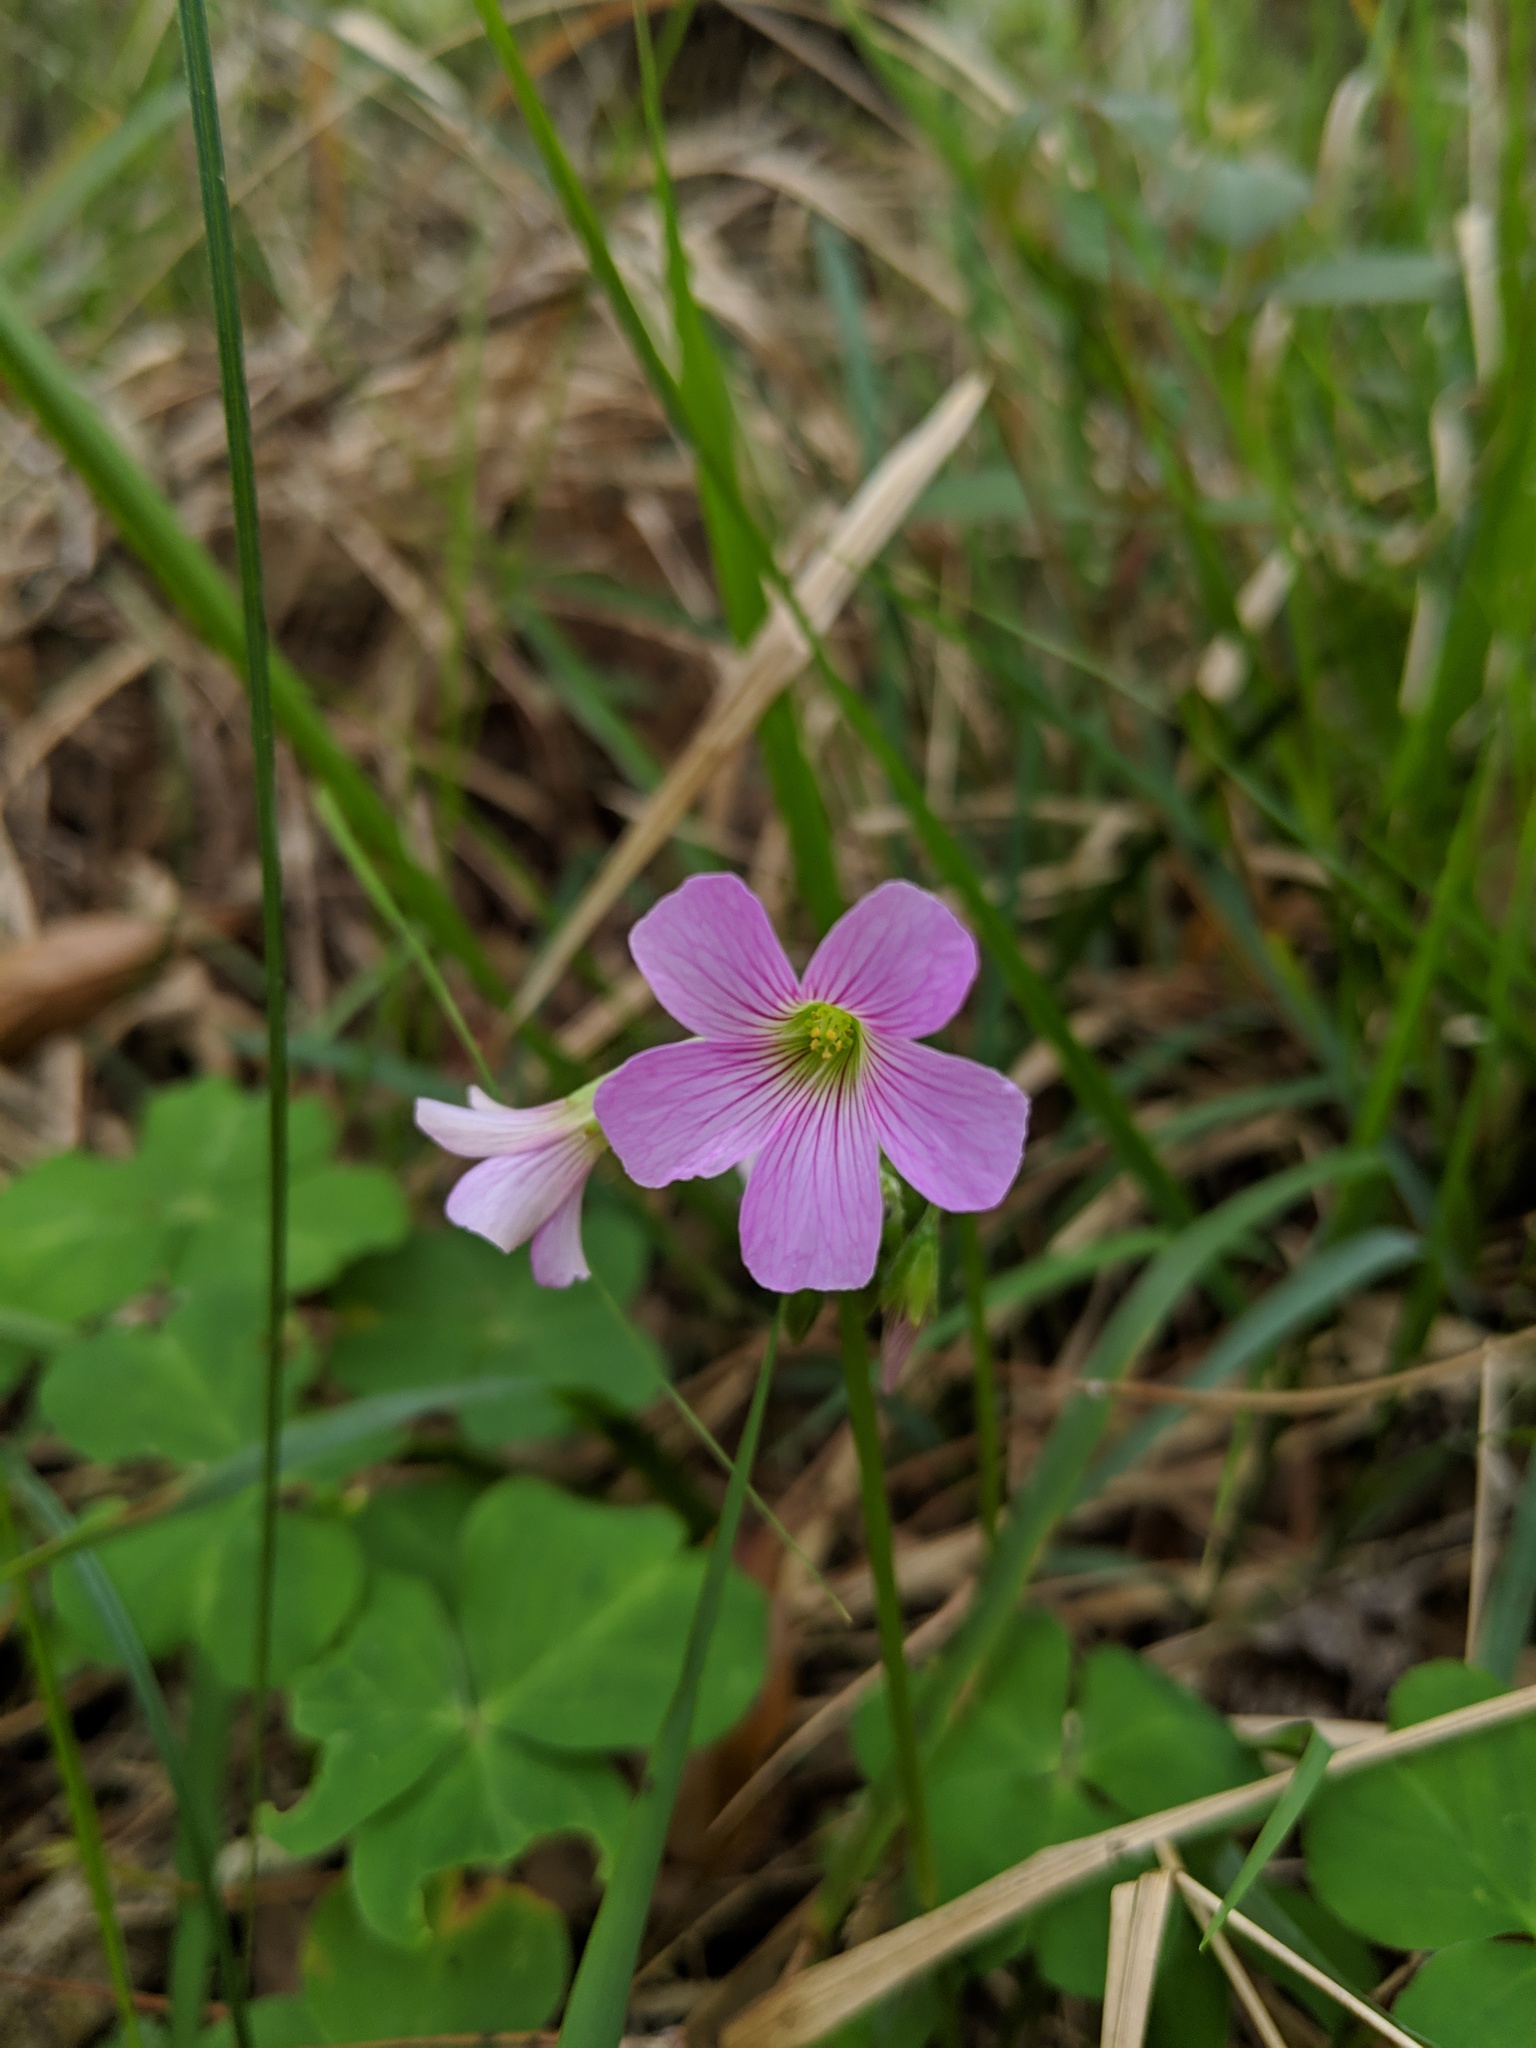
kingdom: Plantae
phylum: Tracheophyta
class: Magnoliopsida
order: Oxalidales
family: Oxalidaceae
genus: Oxalis
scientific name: Oxalis debilis
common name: Large-flowered pink-sorrel
